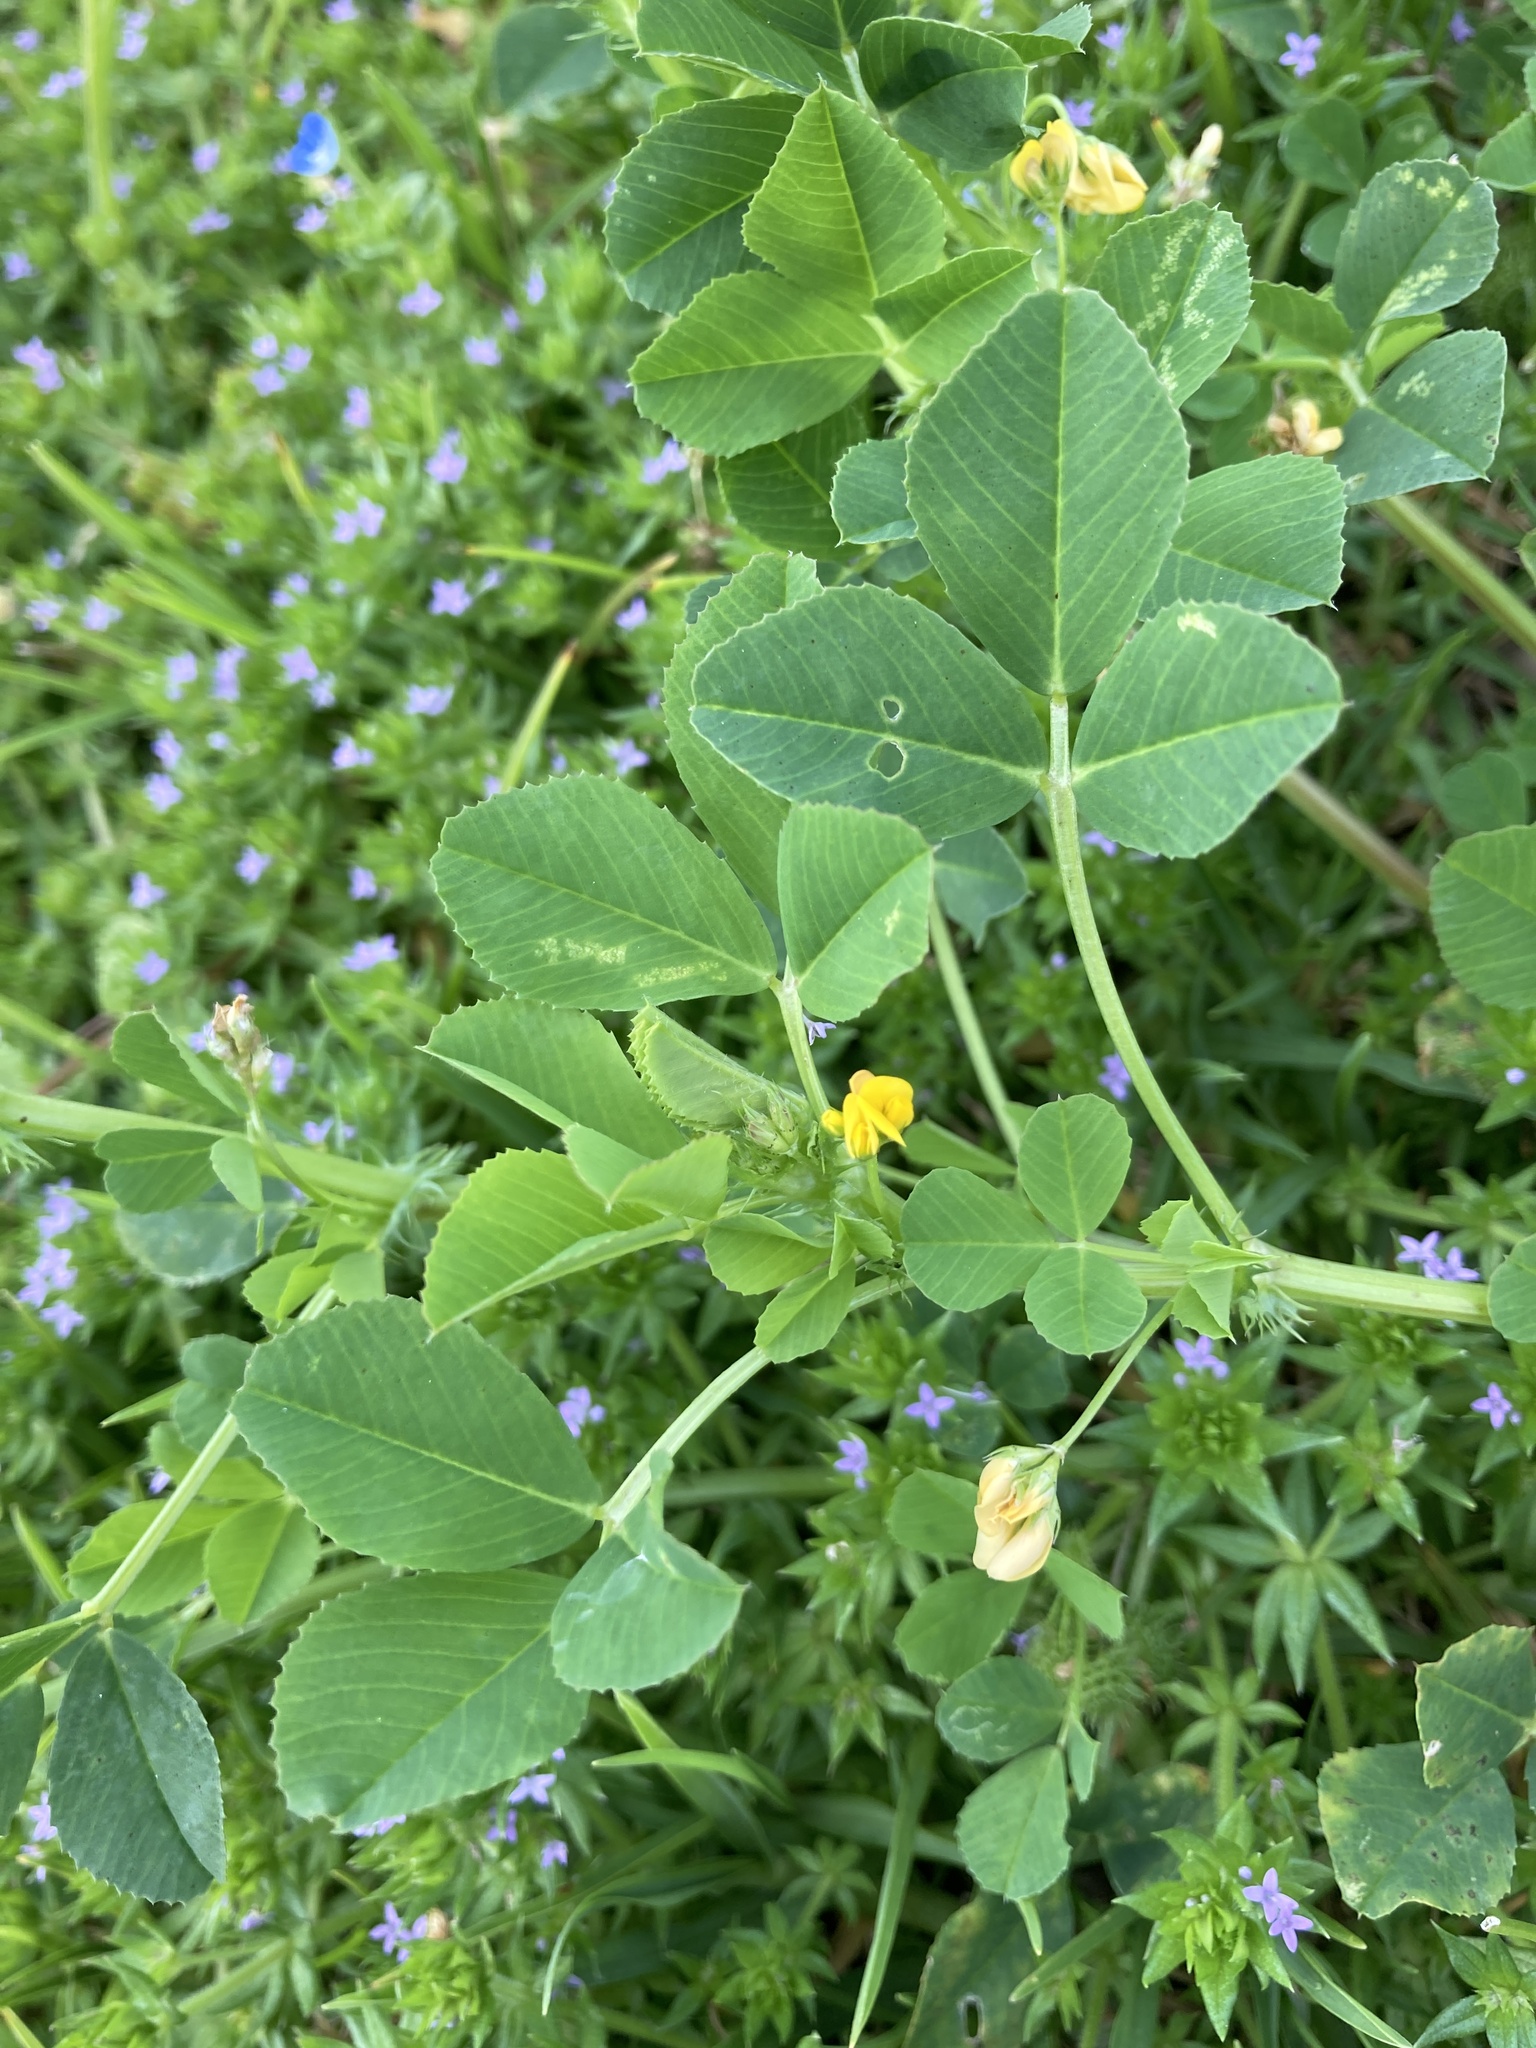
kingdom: Plantae
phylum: Tracheophyta
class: Magnoliopsida
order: Fabales
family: Fabaceae
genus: Medicago
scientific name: Medicago polymorpha
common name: Burclover
